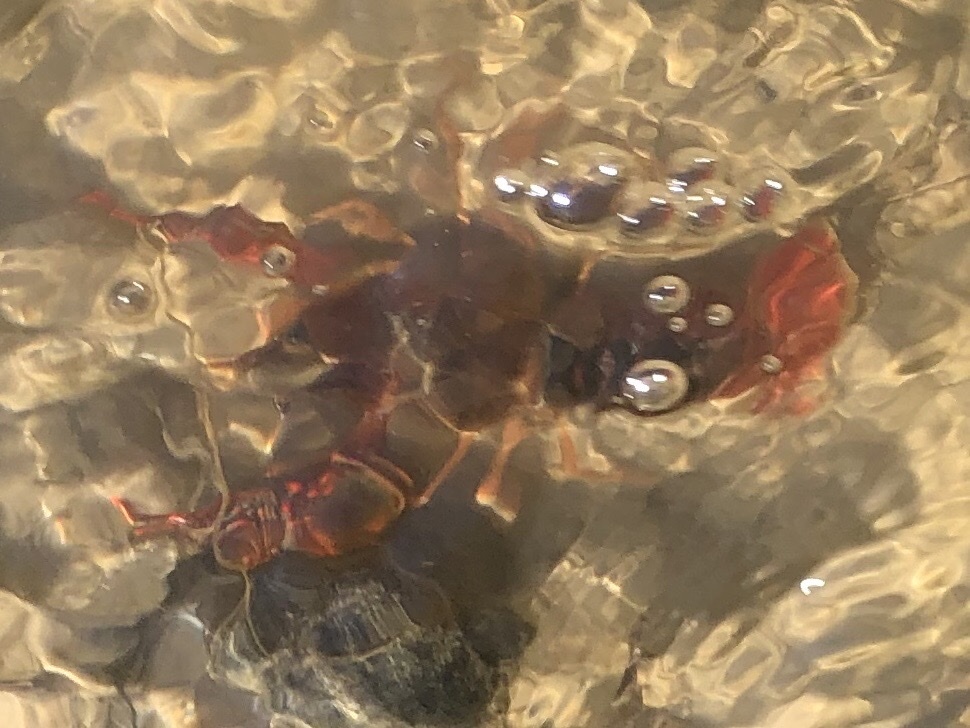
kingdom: Animalia
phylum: Arthropoda
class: Malacostraca
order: Decapoda
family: Cambaridae
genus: Procambarus
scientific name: Procambarus clarkii
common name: Red swamp crayfish
